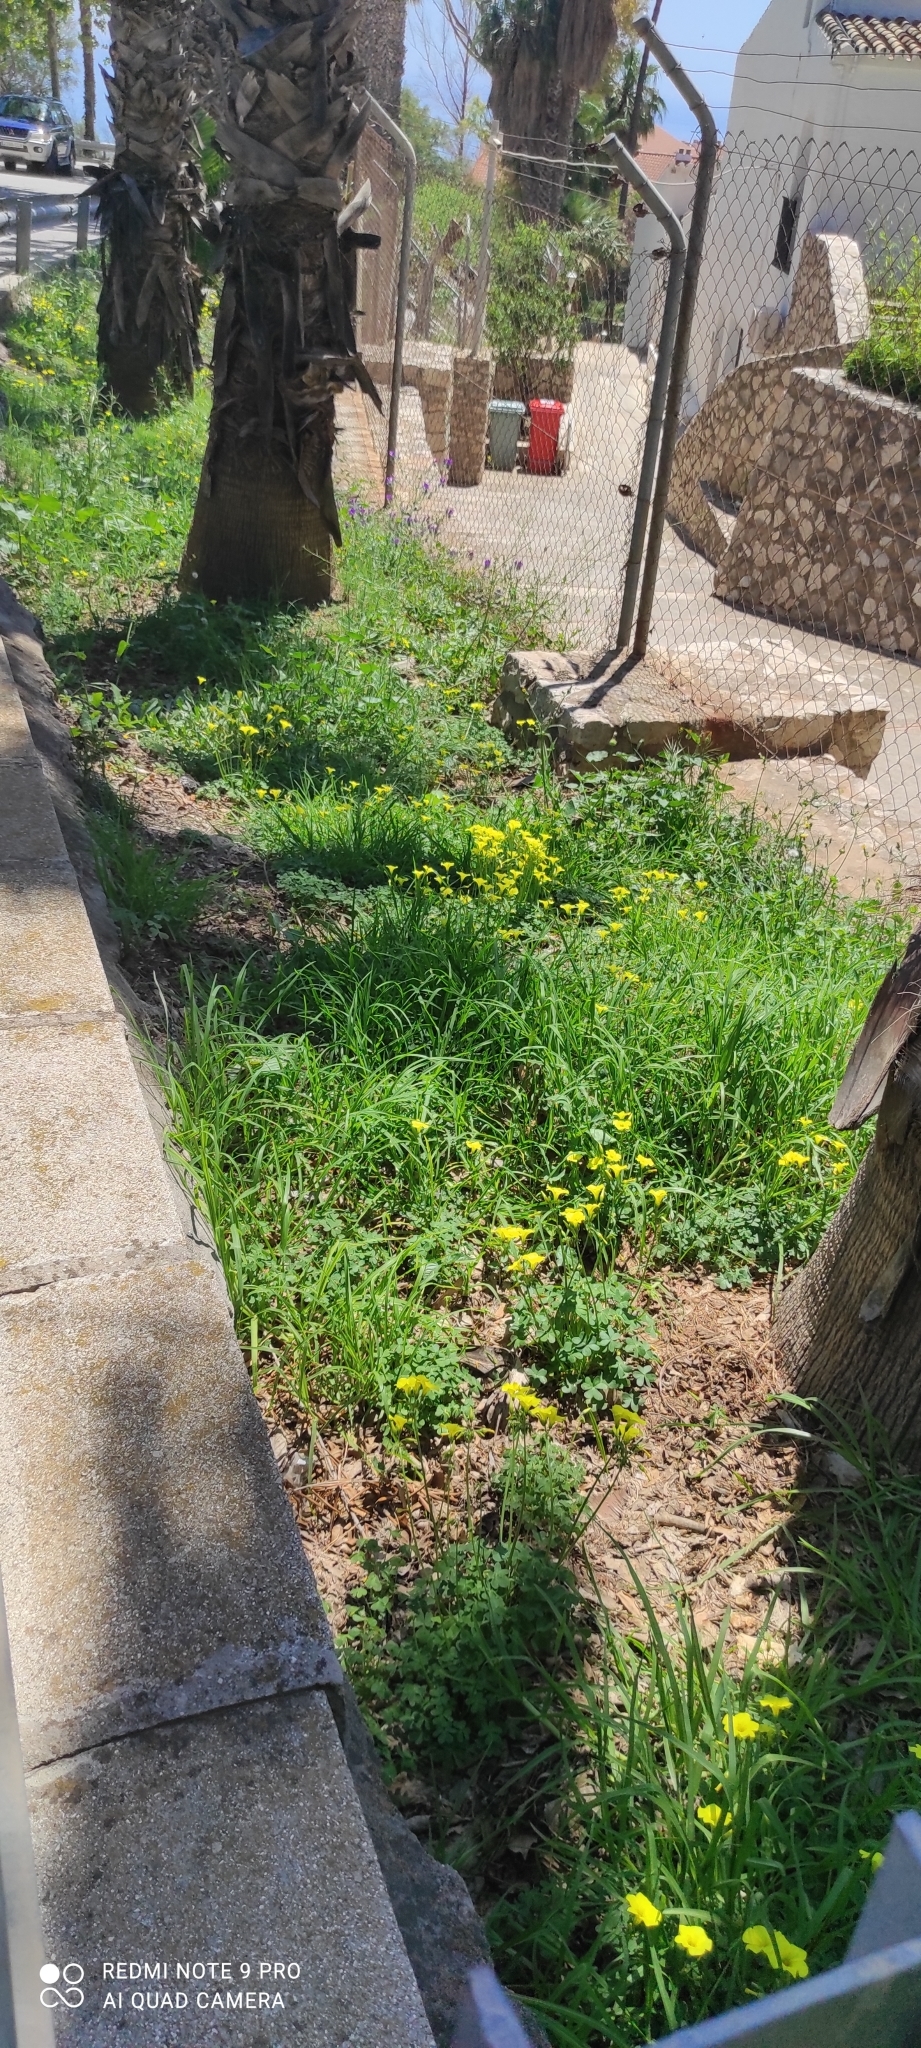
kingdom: Plantae
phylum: Tracheophyta
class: Magnoliopsida
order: Oxalidales
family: Oxalidaceae
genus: Oxalis
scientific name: Oxalis pes-caprae
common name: Bermuda-buttercup
